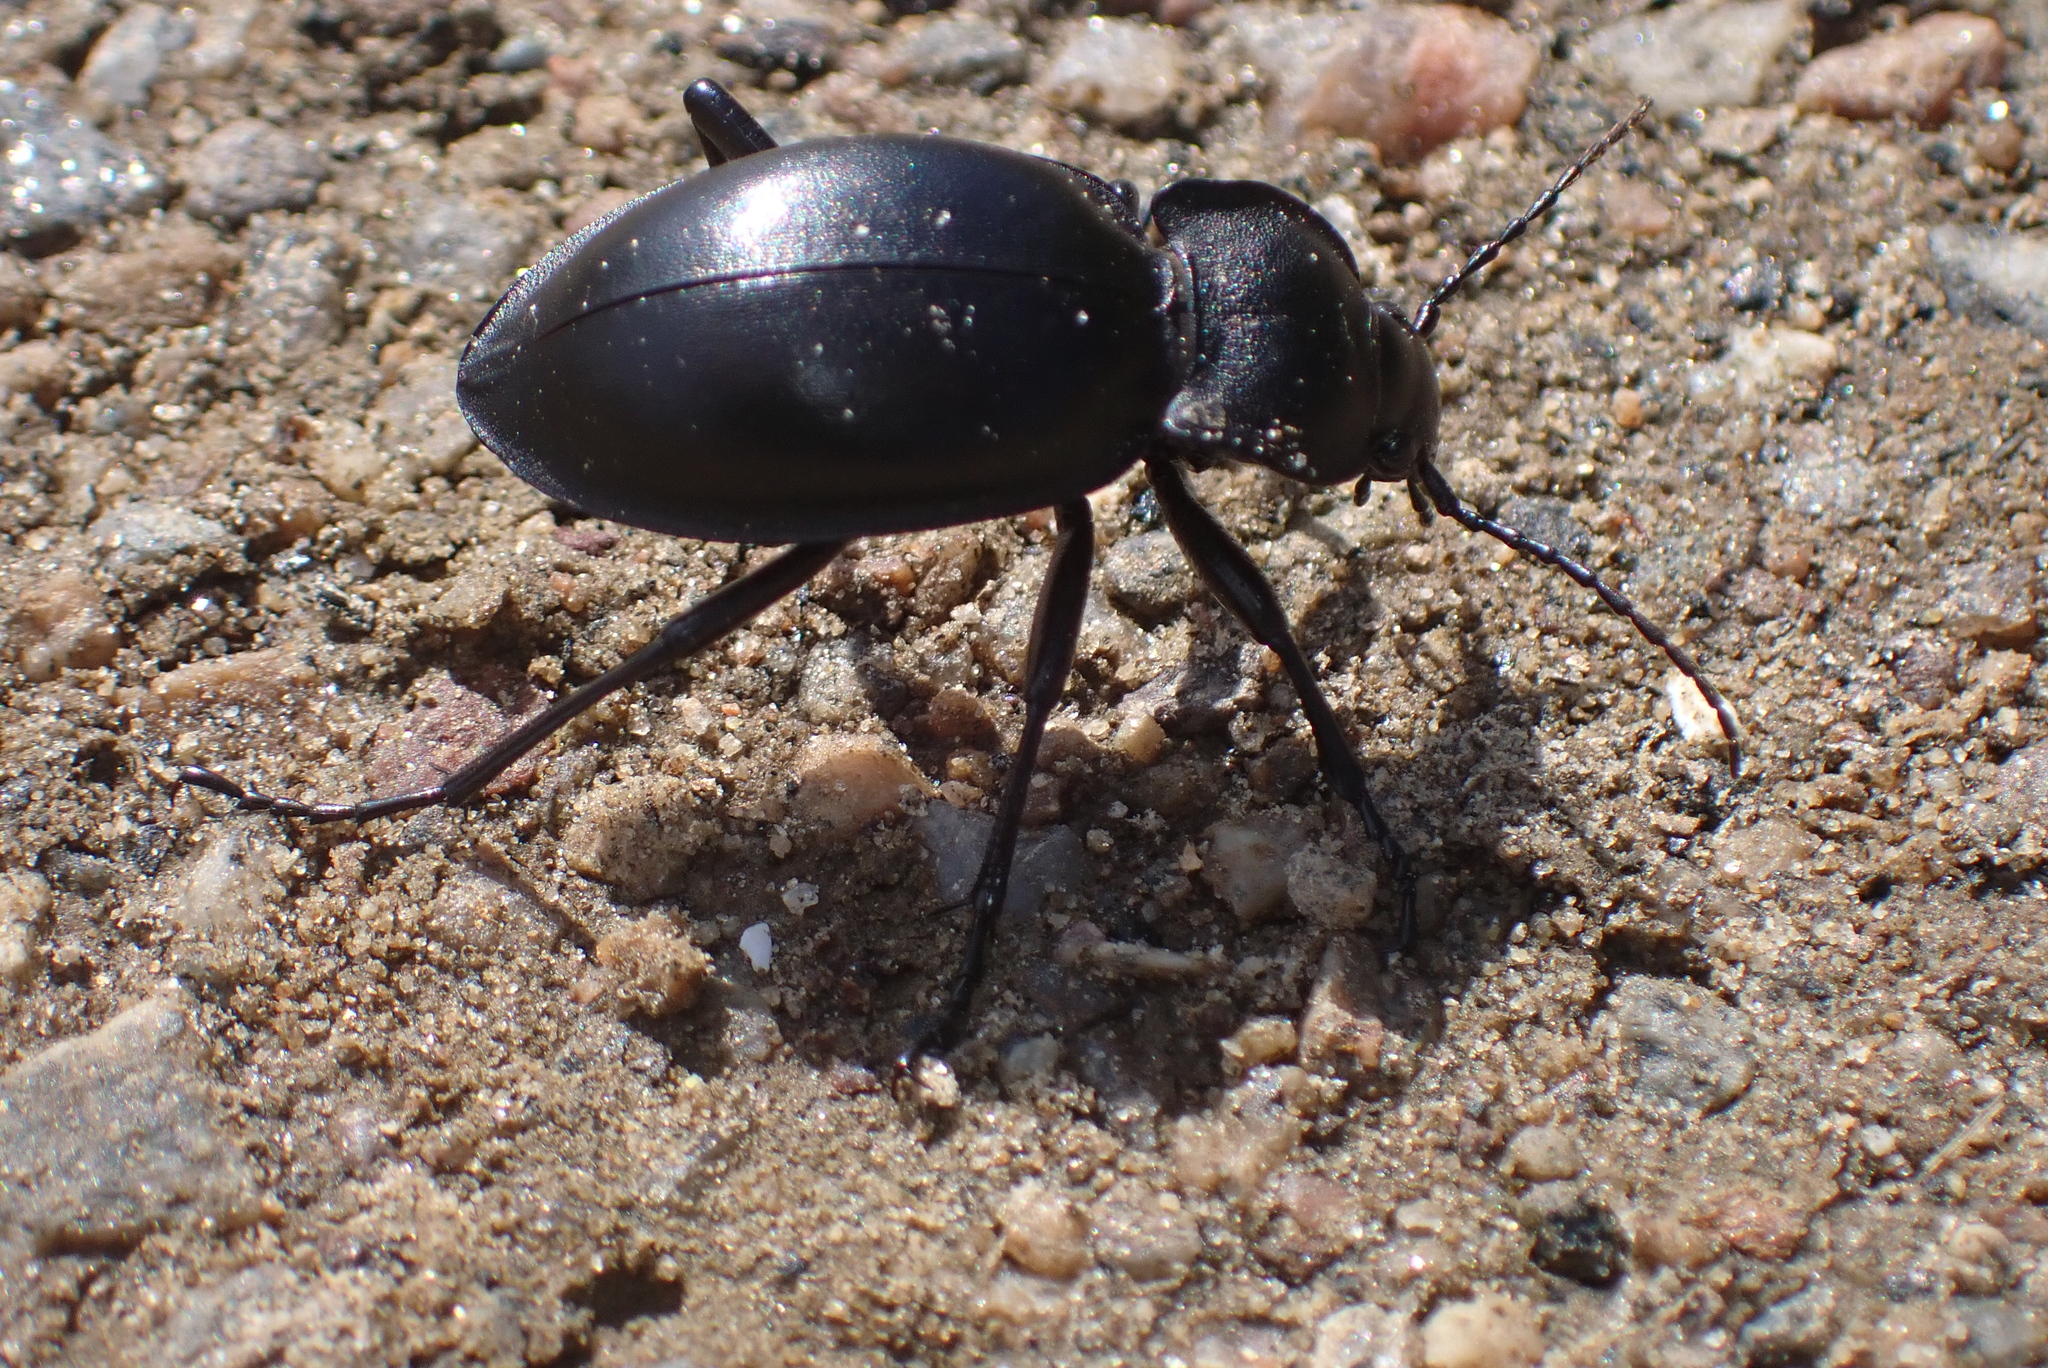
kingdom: Animalia
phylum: Arthropoda
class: Insecta
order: Coleoptera
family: Carabidae
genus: Carabus
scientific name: Carabus glabratus
